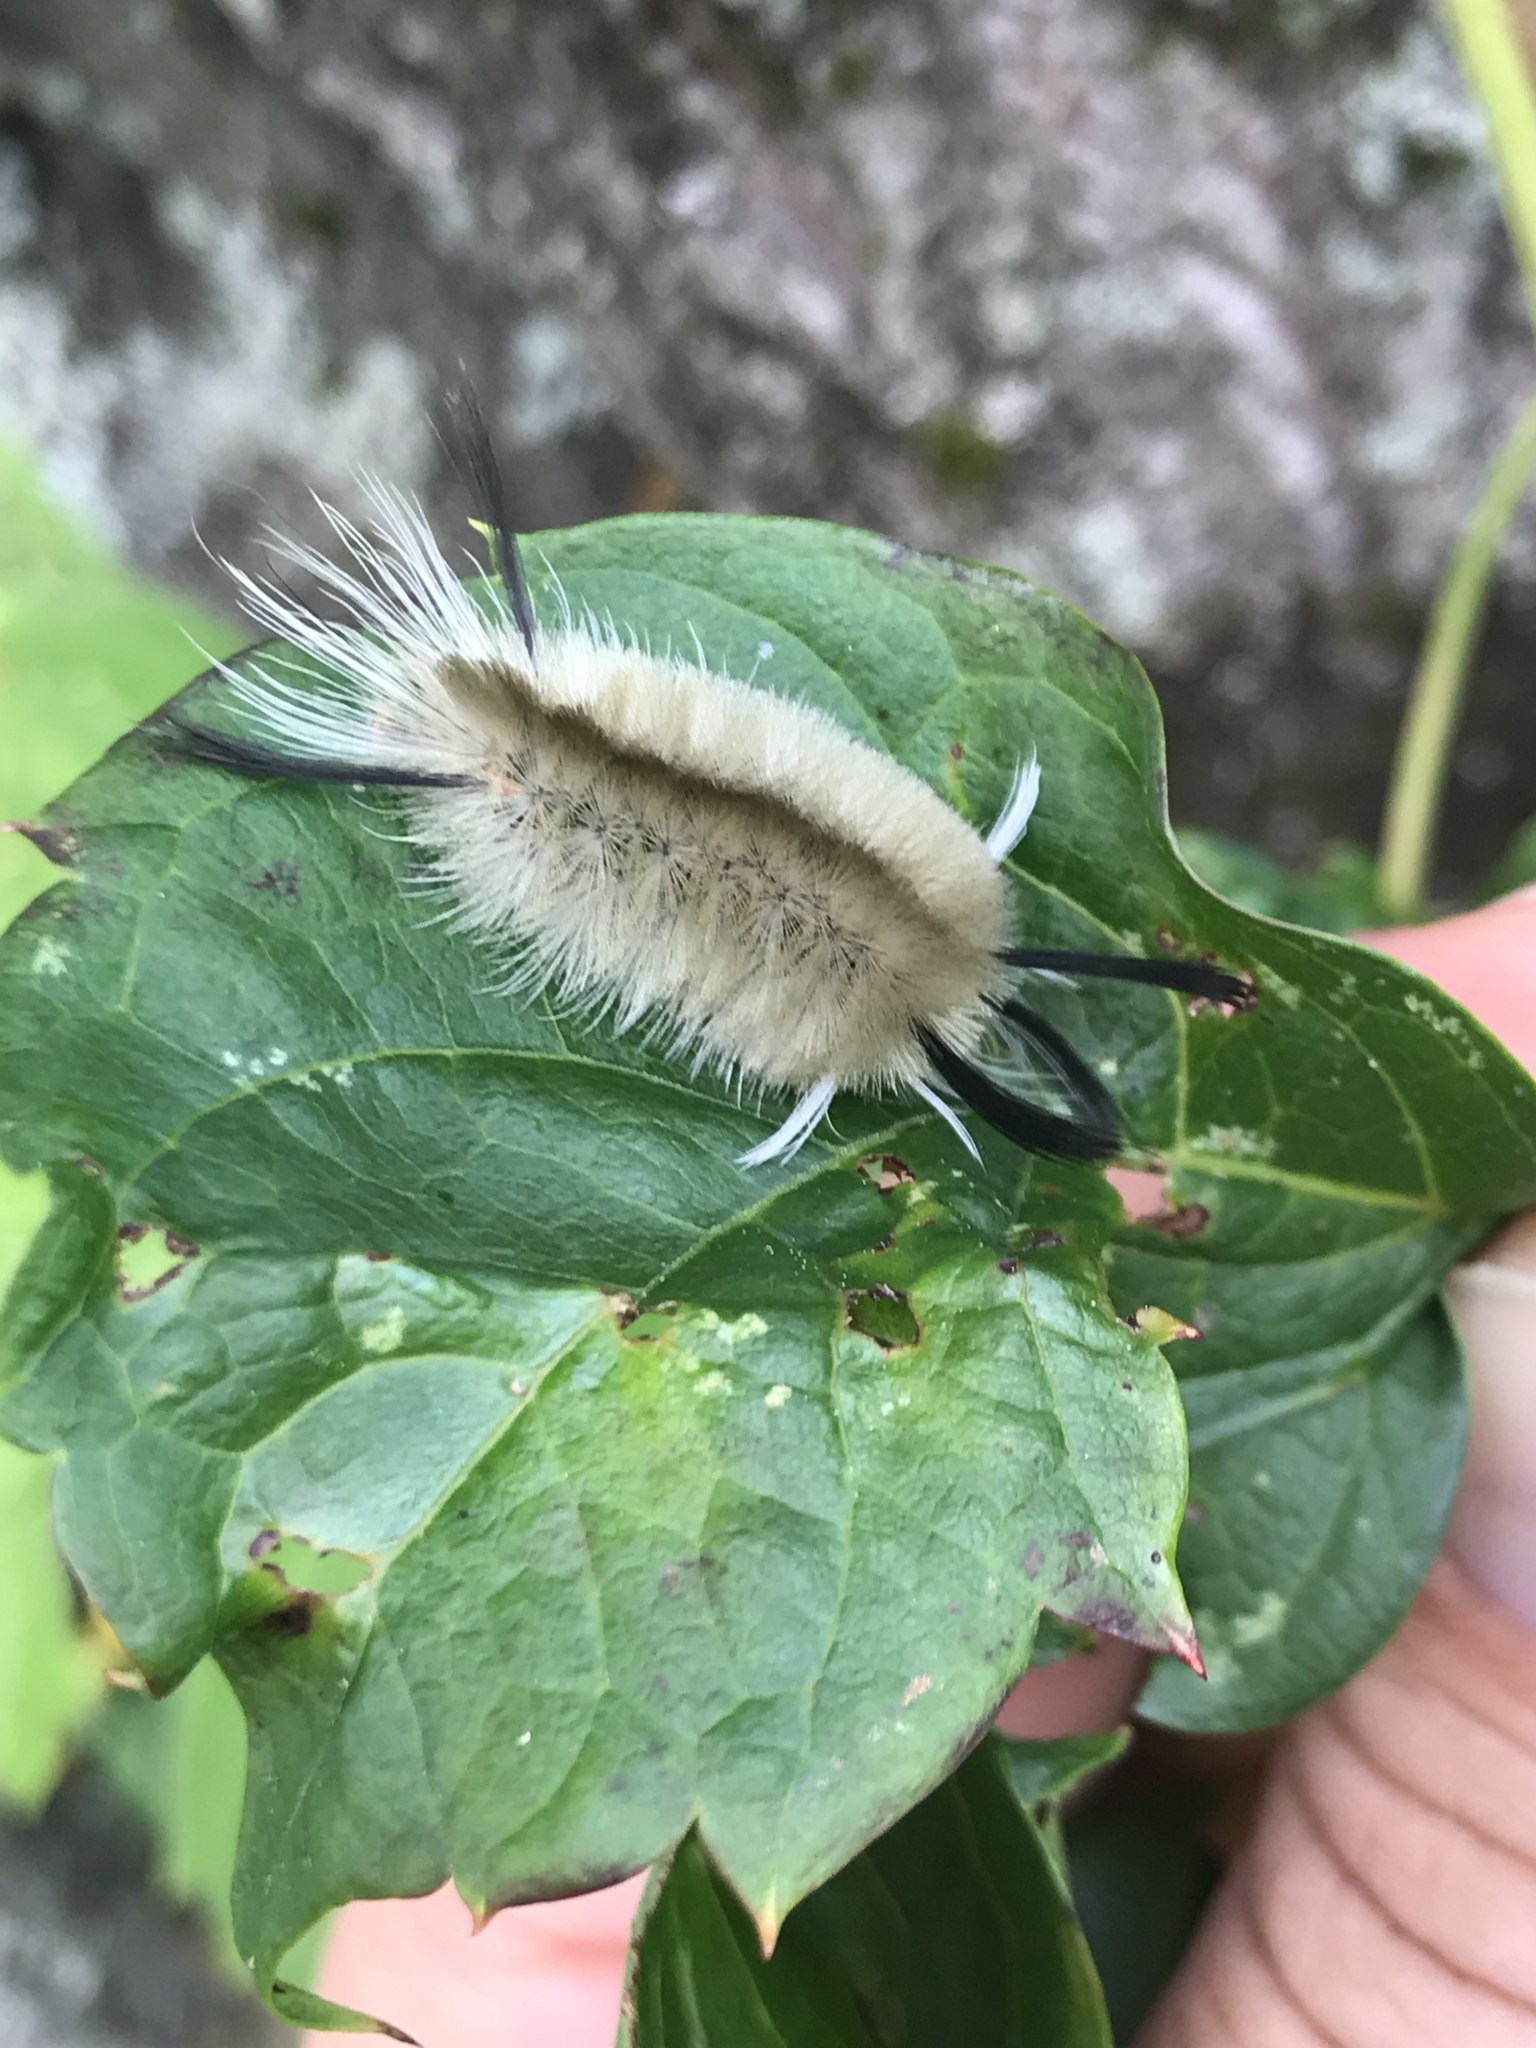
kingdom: Animalia
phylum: Arthropoda
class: Insecta
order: Lepidoptera
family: Erebidae
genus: Halysidota
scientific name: Halysidota tessellaris
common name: Banded tussock moth
